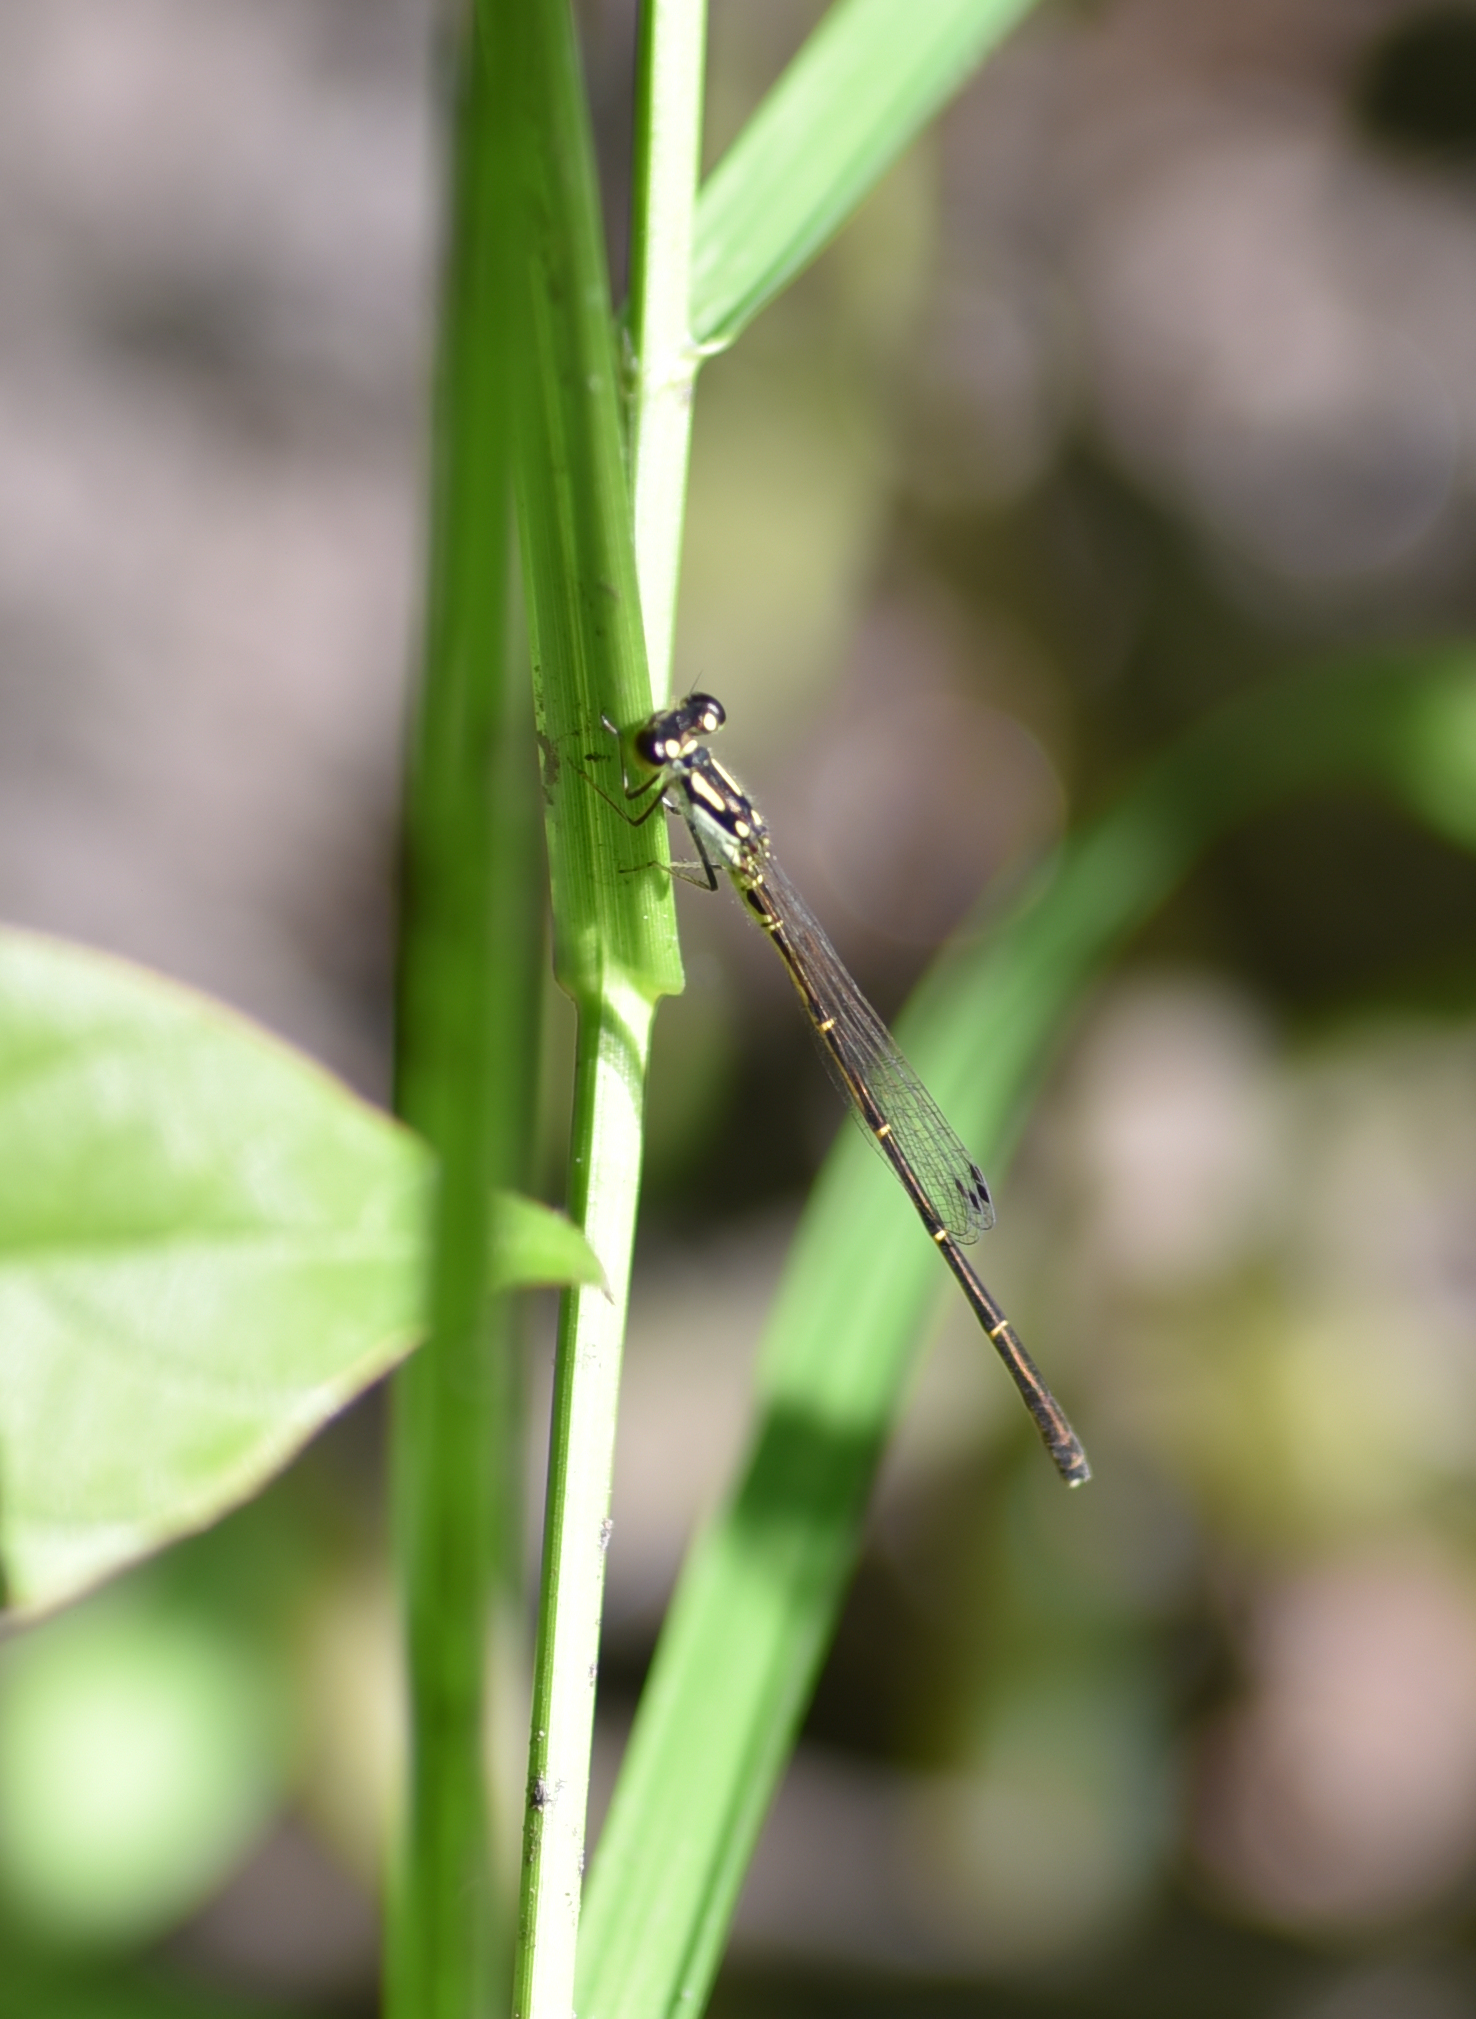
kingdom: Animalia
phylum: Arthropoda
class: Insecta
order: Odonata
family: Coenagrionidae
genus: Ischnura
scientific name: Ischnura posita
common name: Fragile forktail
